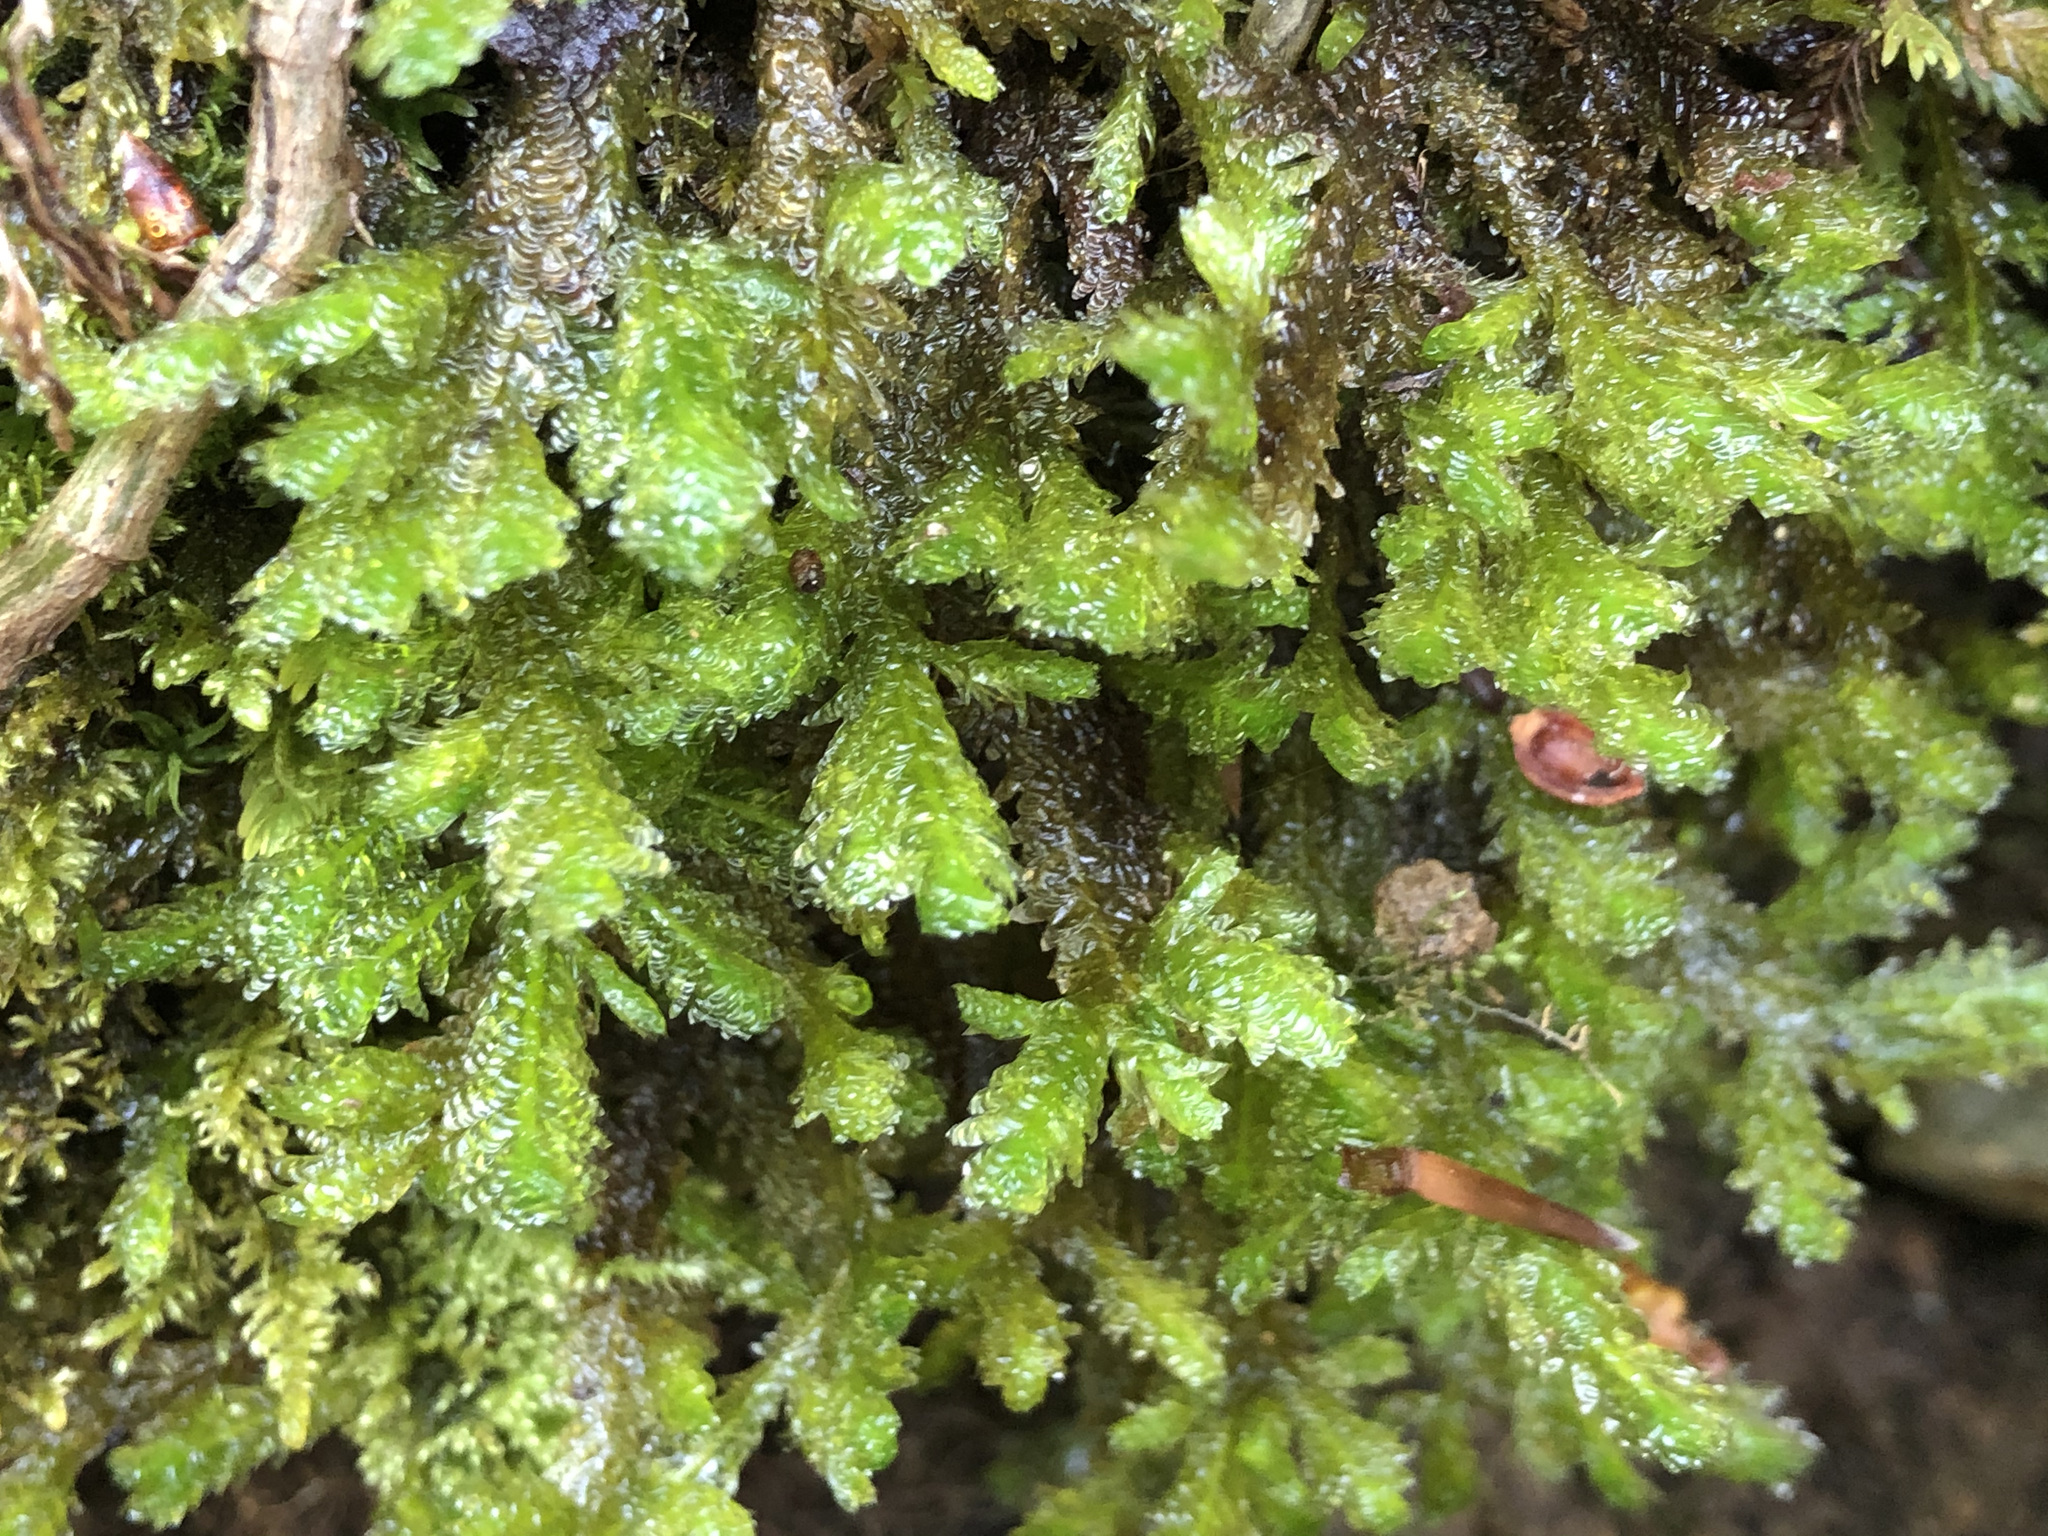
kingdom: Plantae
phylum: Bryophyta
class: Bryopsida
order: Hypnales
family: Neckeraceae
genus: Exsertotheca
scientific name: Exsertotheca crispa
